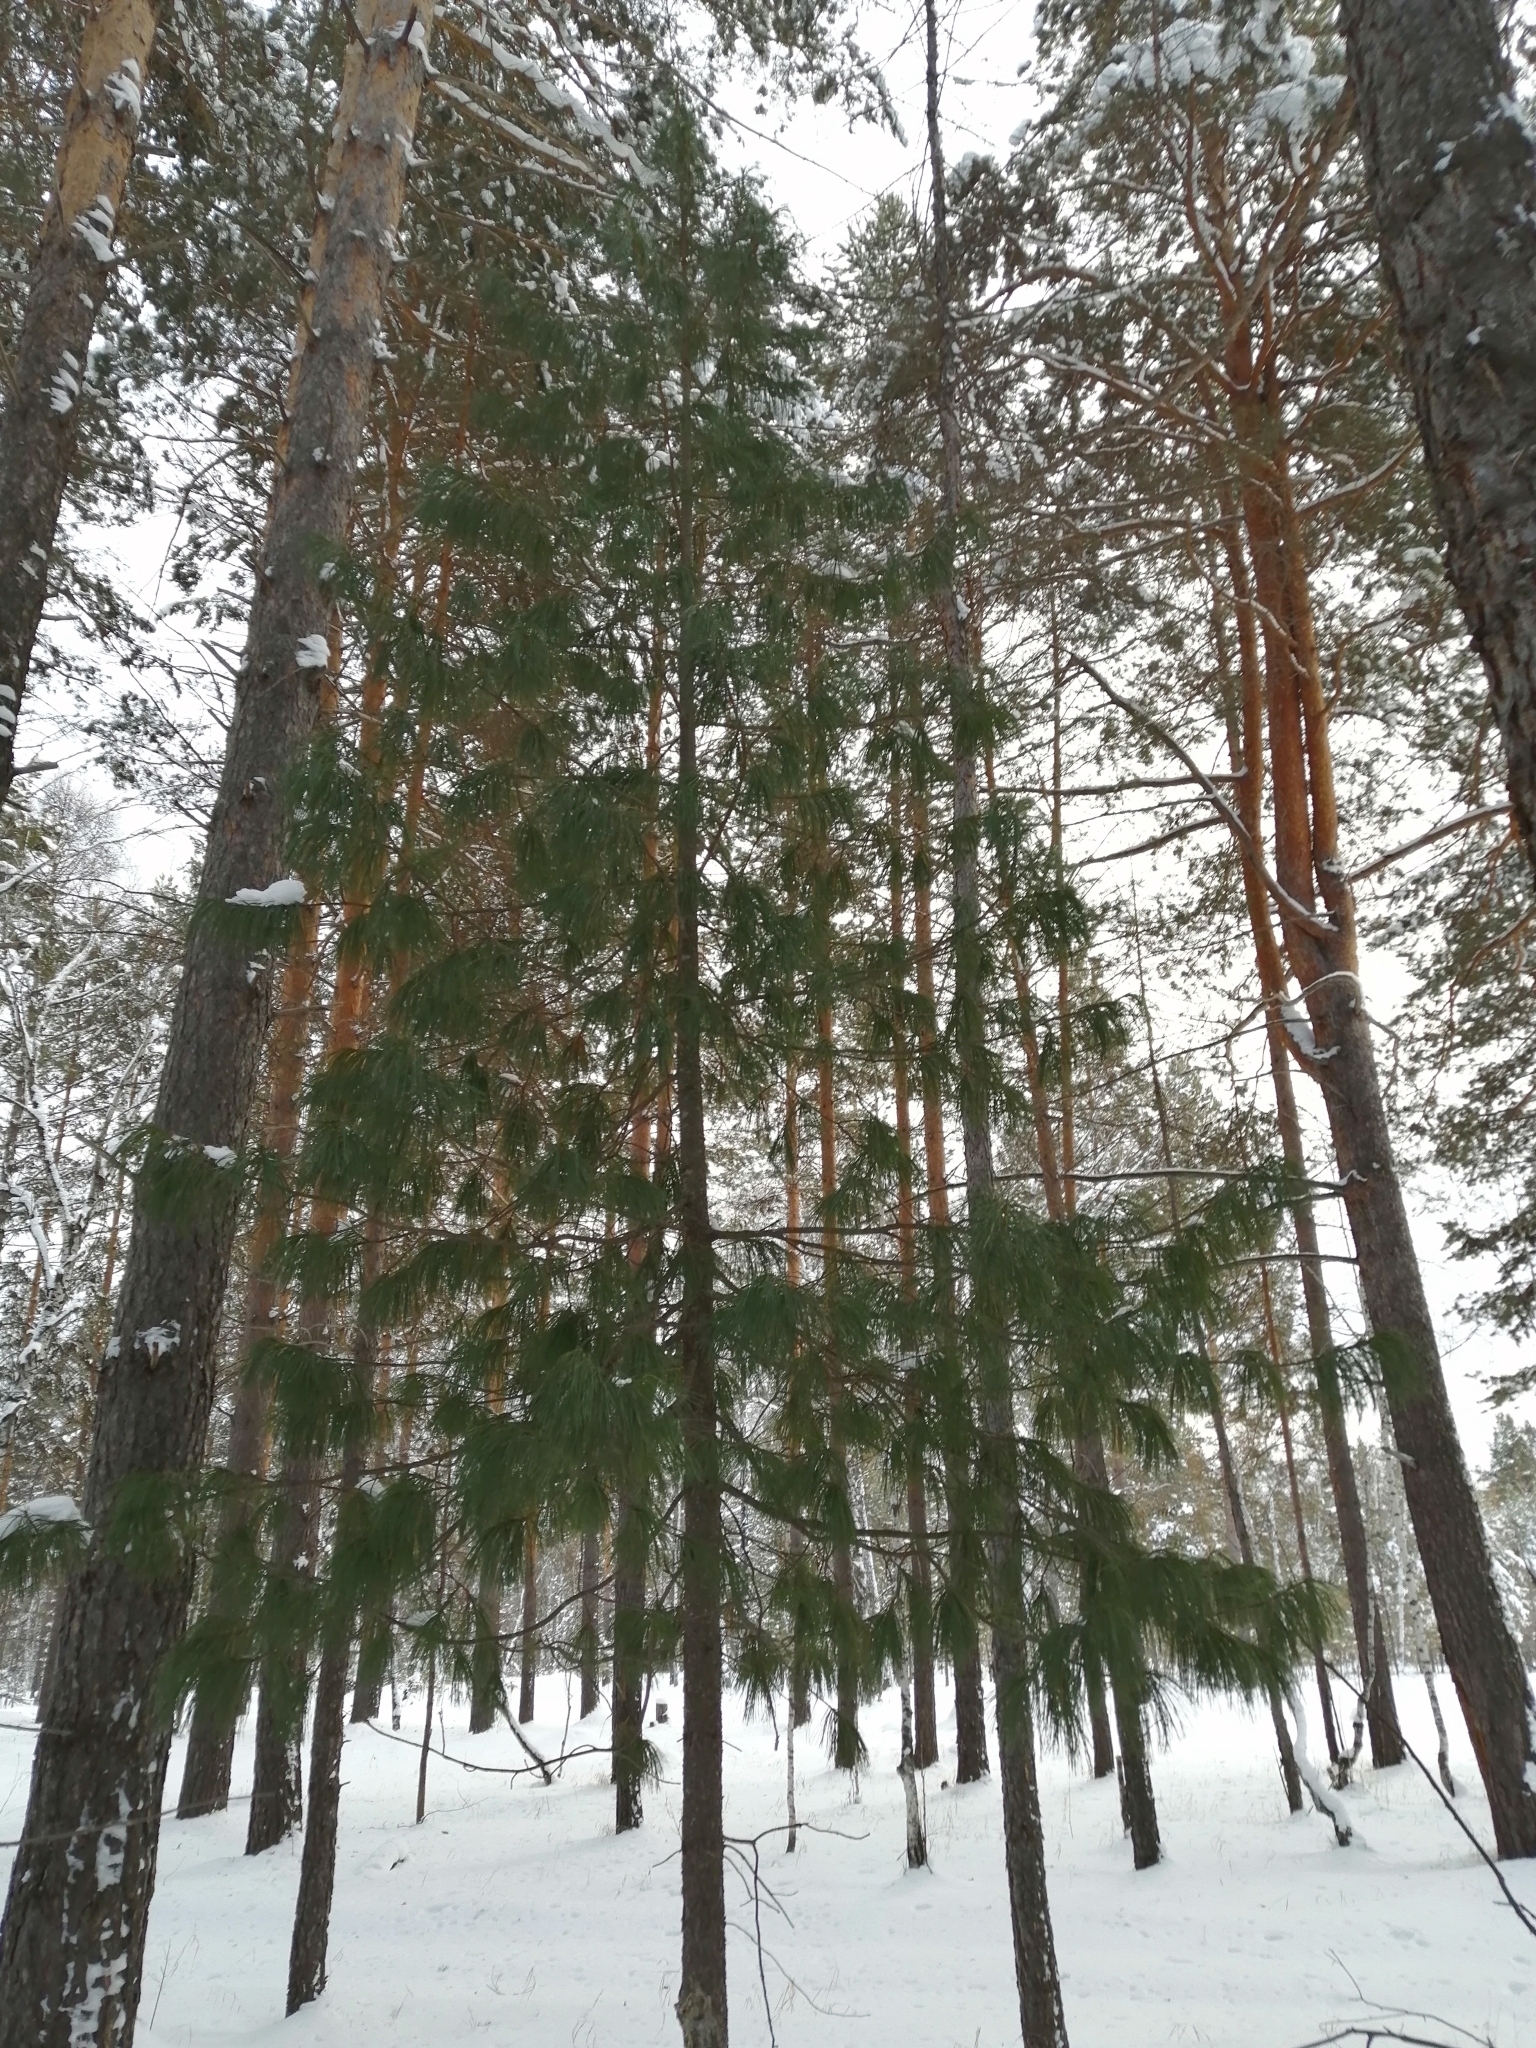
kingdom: Plantae
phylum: Tracheophyta
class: Pinopsida
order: Pinales
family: Pinaceae
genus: Pinus
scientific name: Pinus sibirica
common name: Siberian pine
